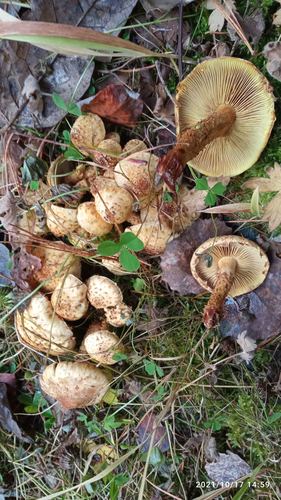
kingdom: Fungi
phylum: Basidiomycota
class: Agaricomycetes
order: Agaricales
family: Strophariaceae
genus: Pholiota
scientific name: Pholiota squarrosa
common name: Shaggy pholiota
